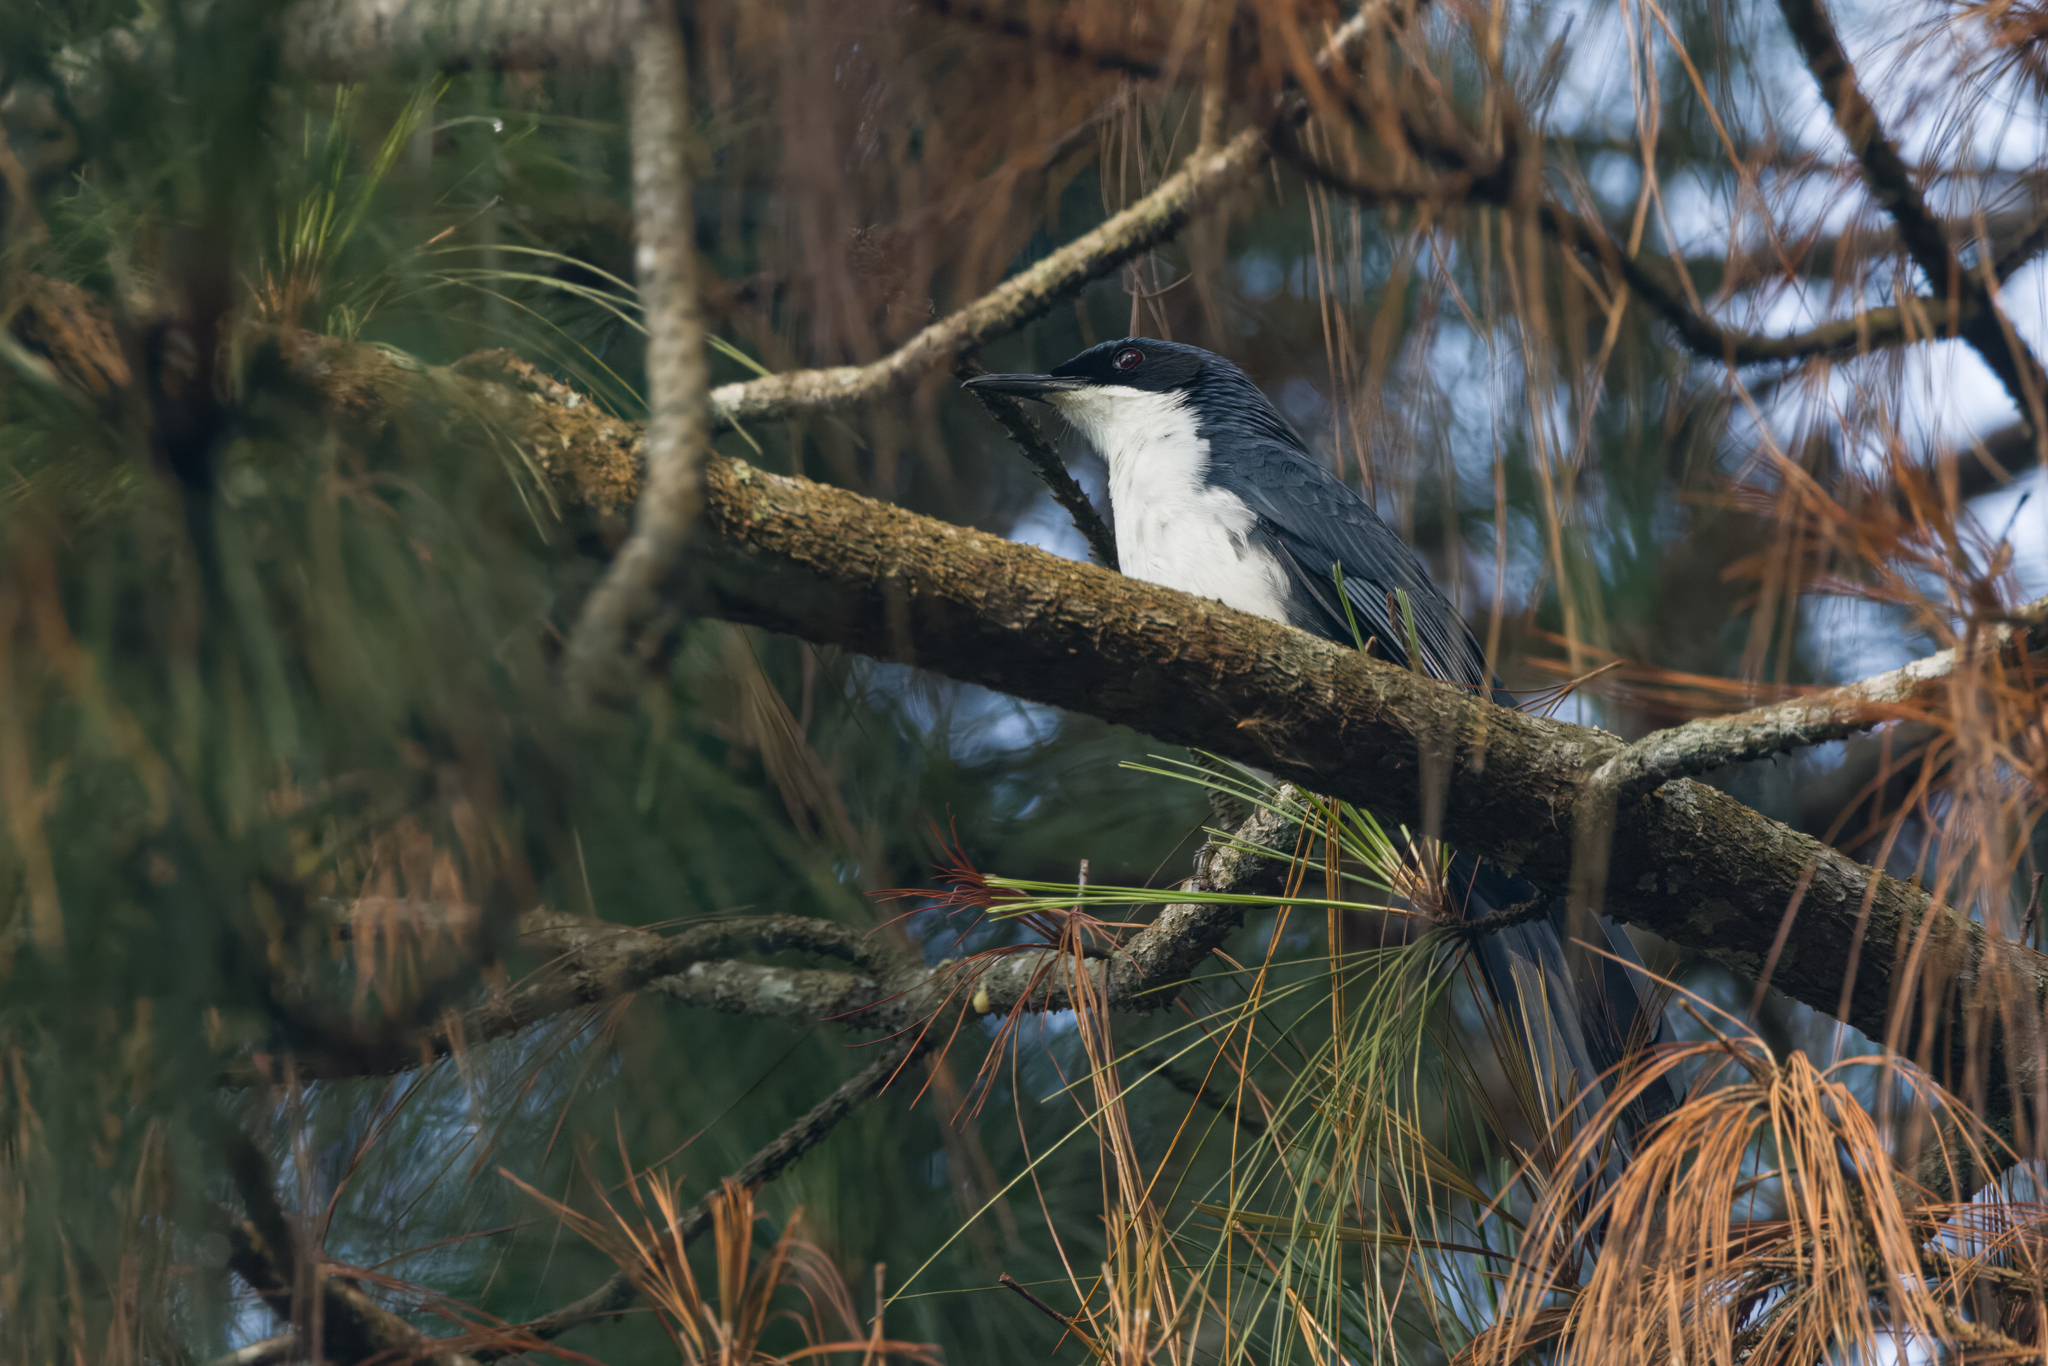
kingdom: Animalia
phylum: Chordata
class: Aves
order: Passeriformes
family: Mimidae
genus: Melanotis
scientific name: Melanotis hypoleucus
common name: Blue-and-white mockingbird
